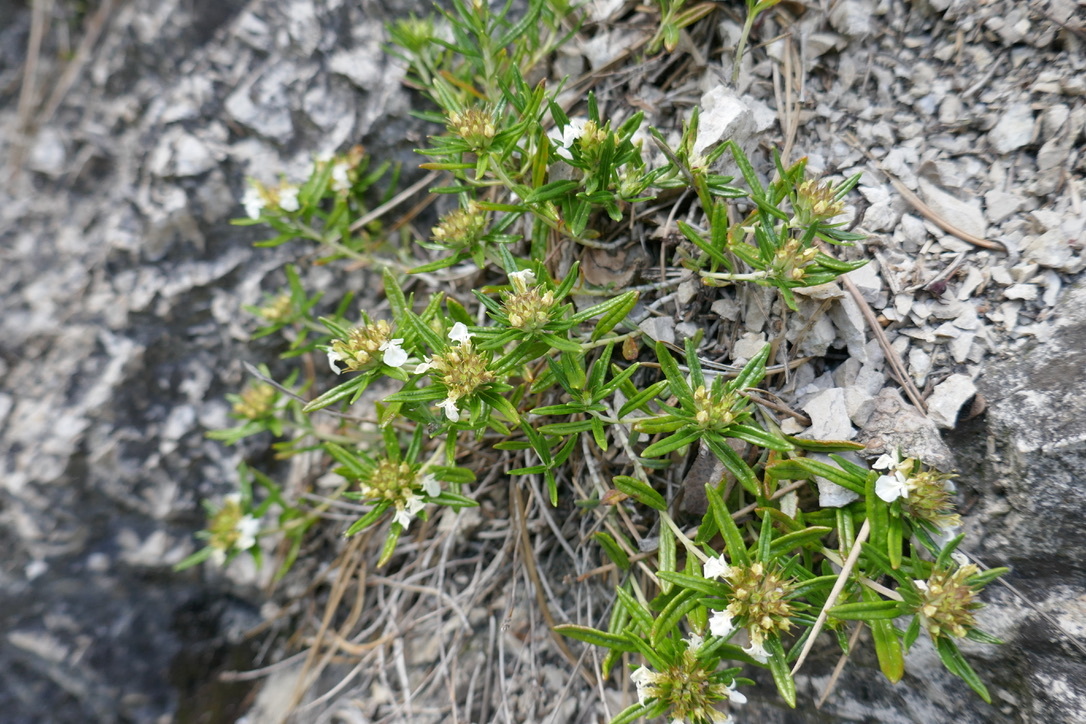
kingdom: Plantae
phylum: Tracheophyta
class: Magnoliopsida
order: Lamiales
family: Lamiaceae
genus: Teucrium
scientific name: Teucrium montanum
